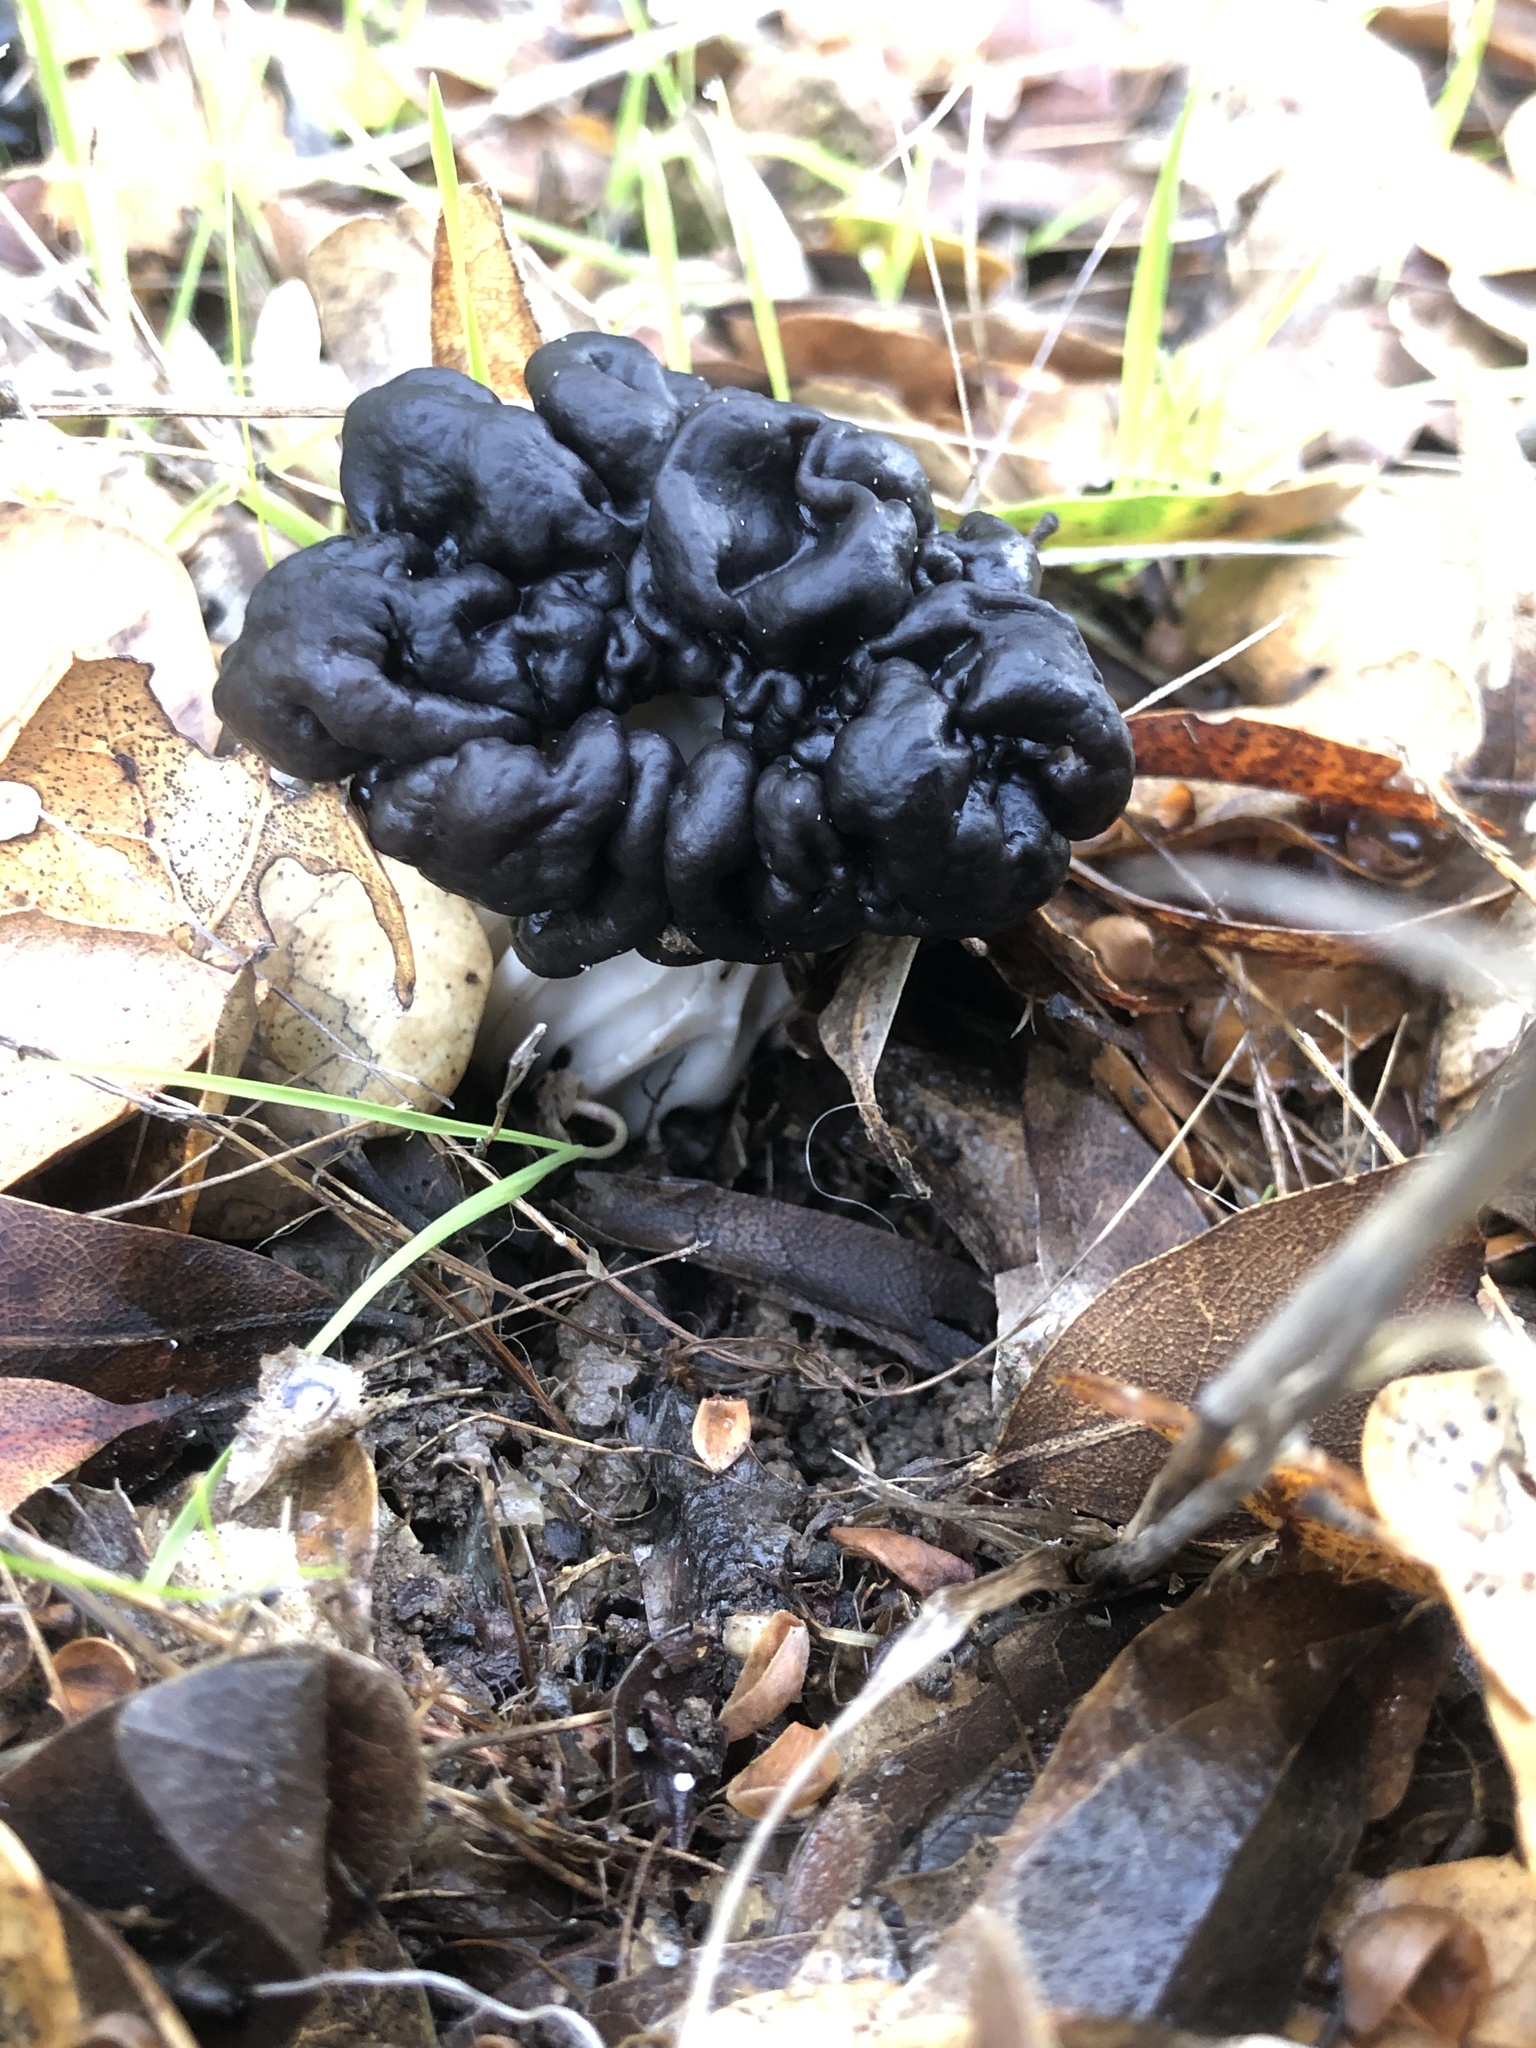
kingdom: Fungi
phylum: Ascomycota
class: Pezizomycetes
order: Pezizales
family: Helvellaceae
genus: Helvella
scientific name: Helvella dryophila
